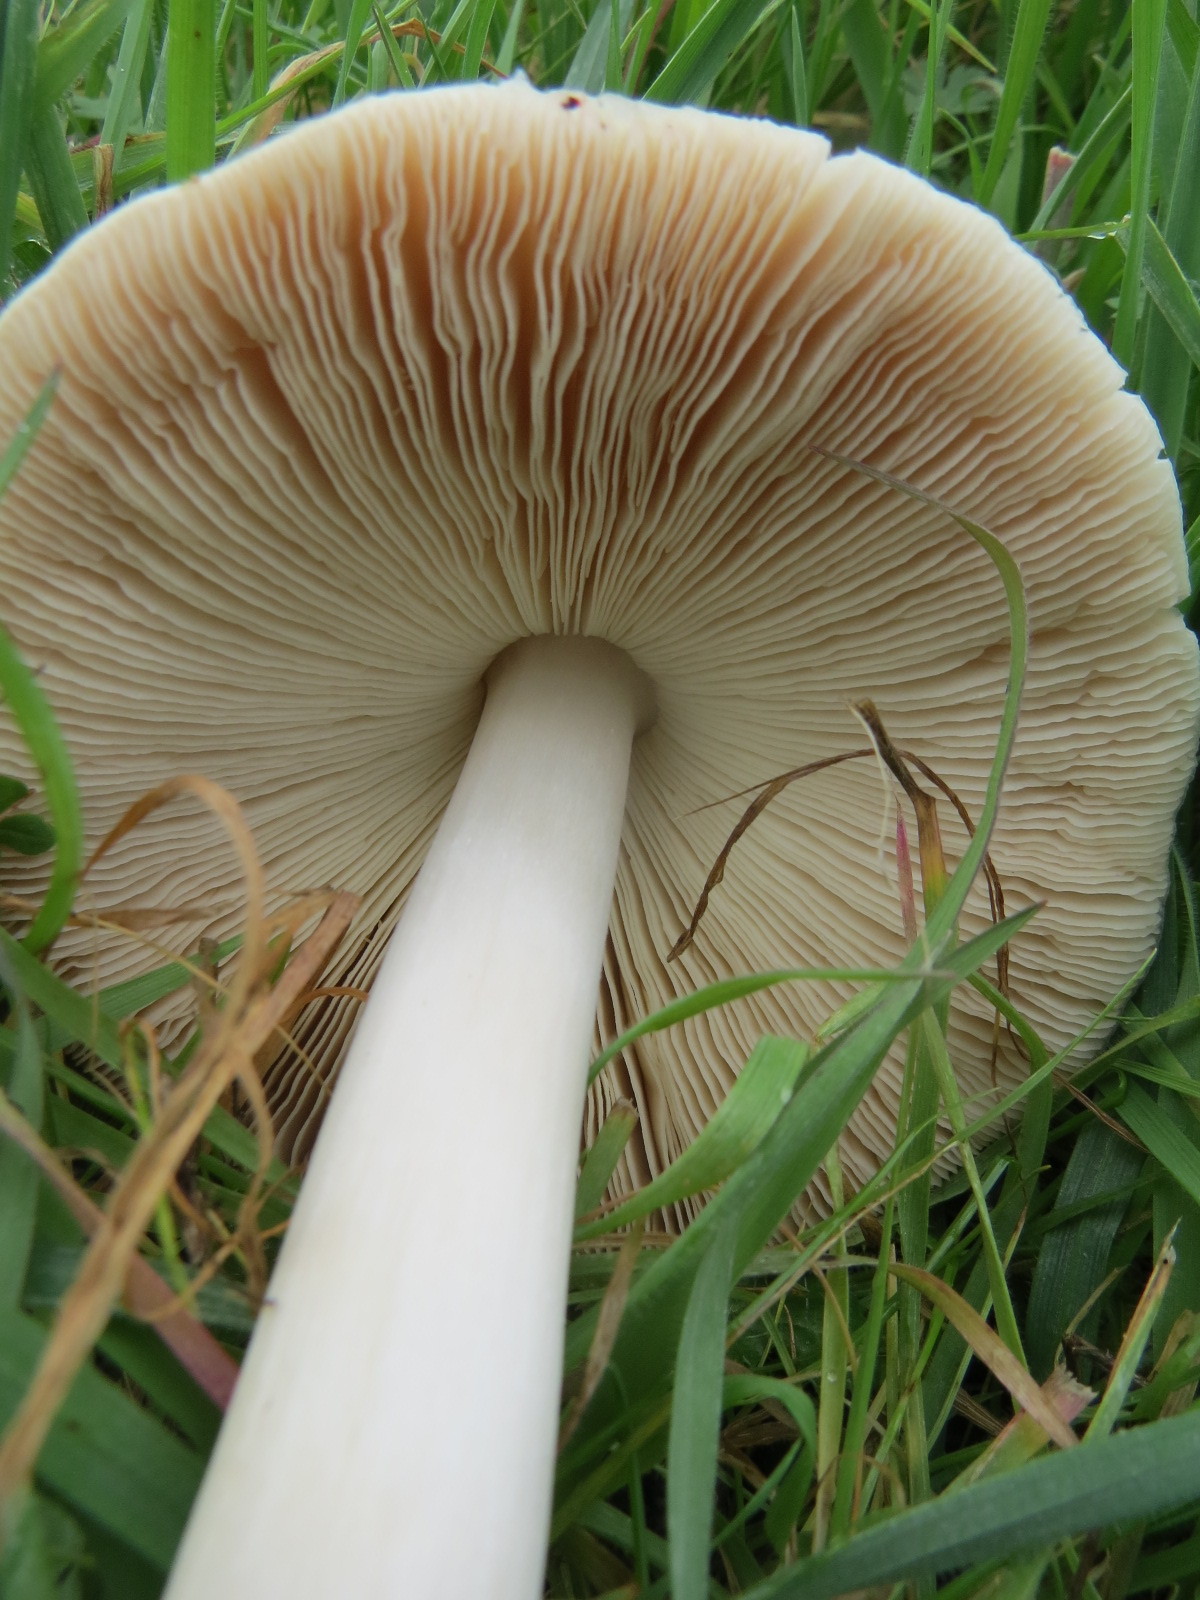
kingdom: Fungi
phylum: Basidiomycota
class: Agaricomycetes
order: Agaricales
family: Pluteaceae
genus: Volvopluteus
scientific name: Volvopluteus gloiocephalus
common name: Stubble rosegill
